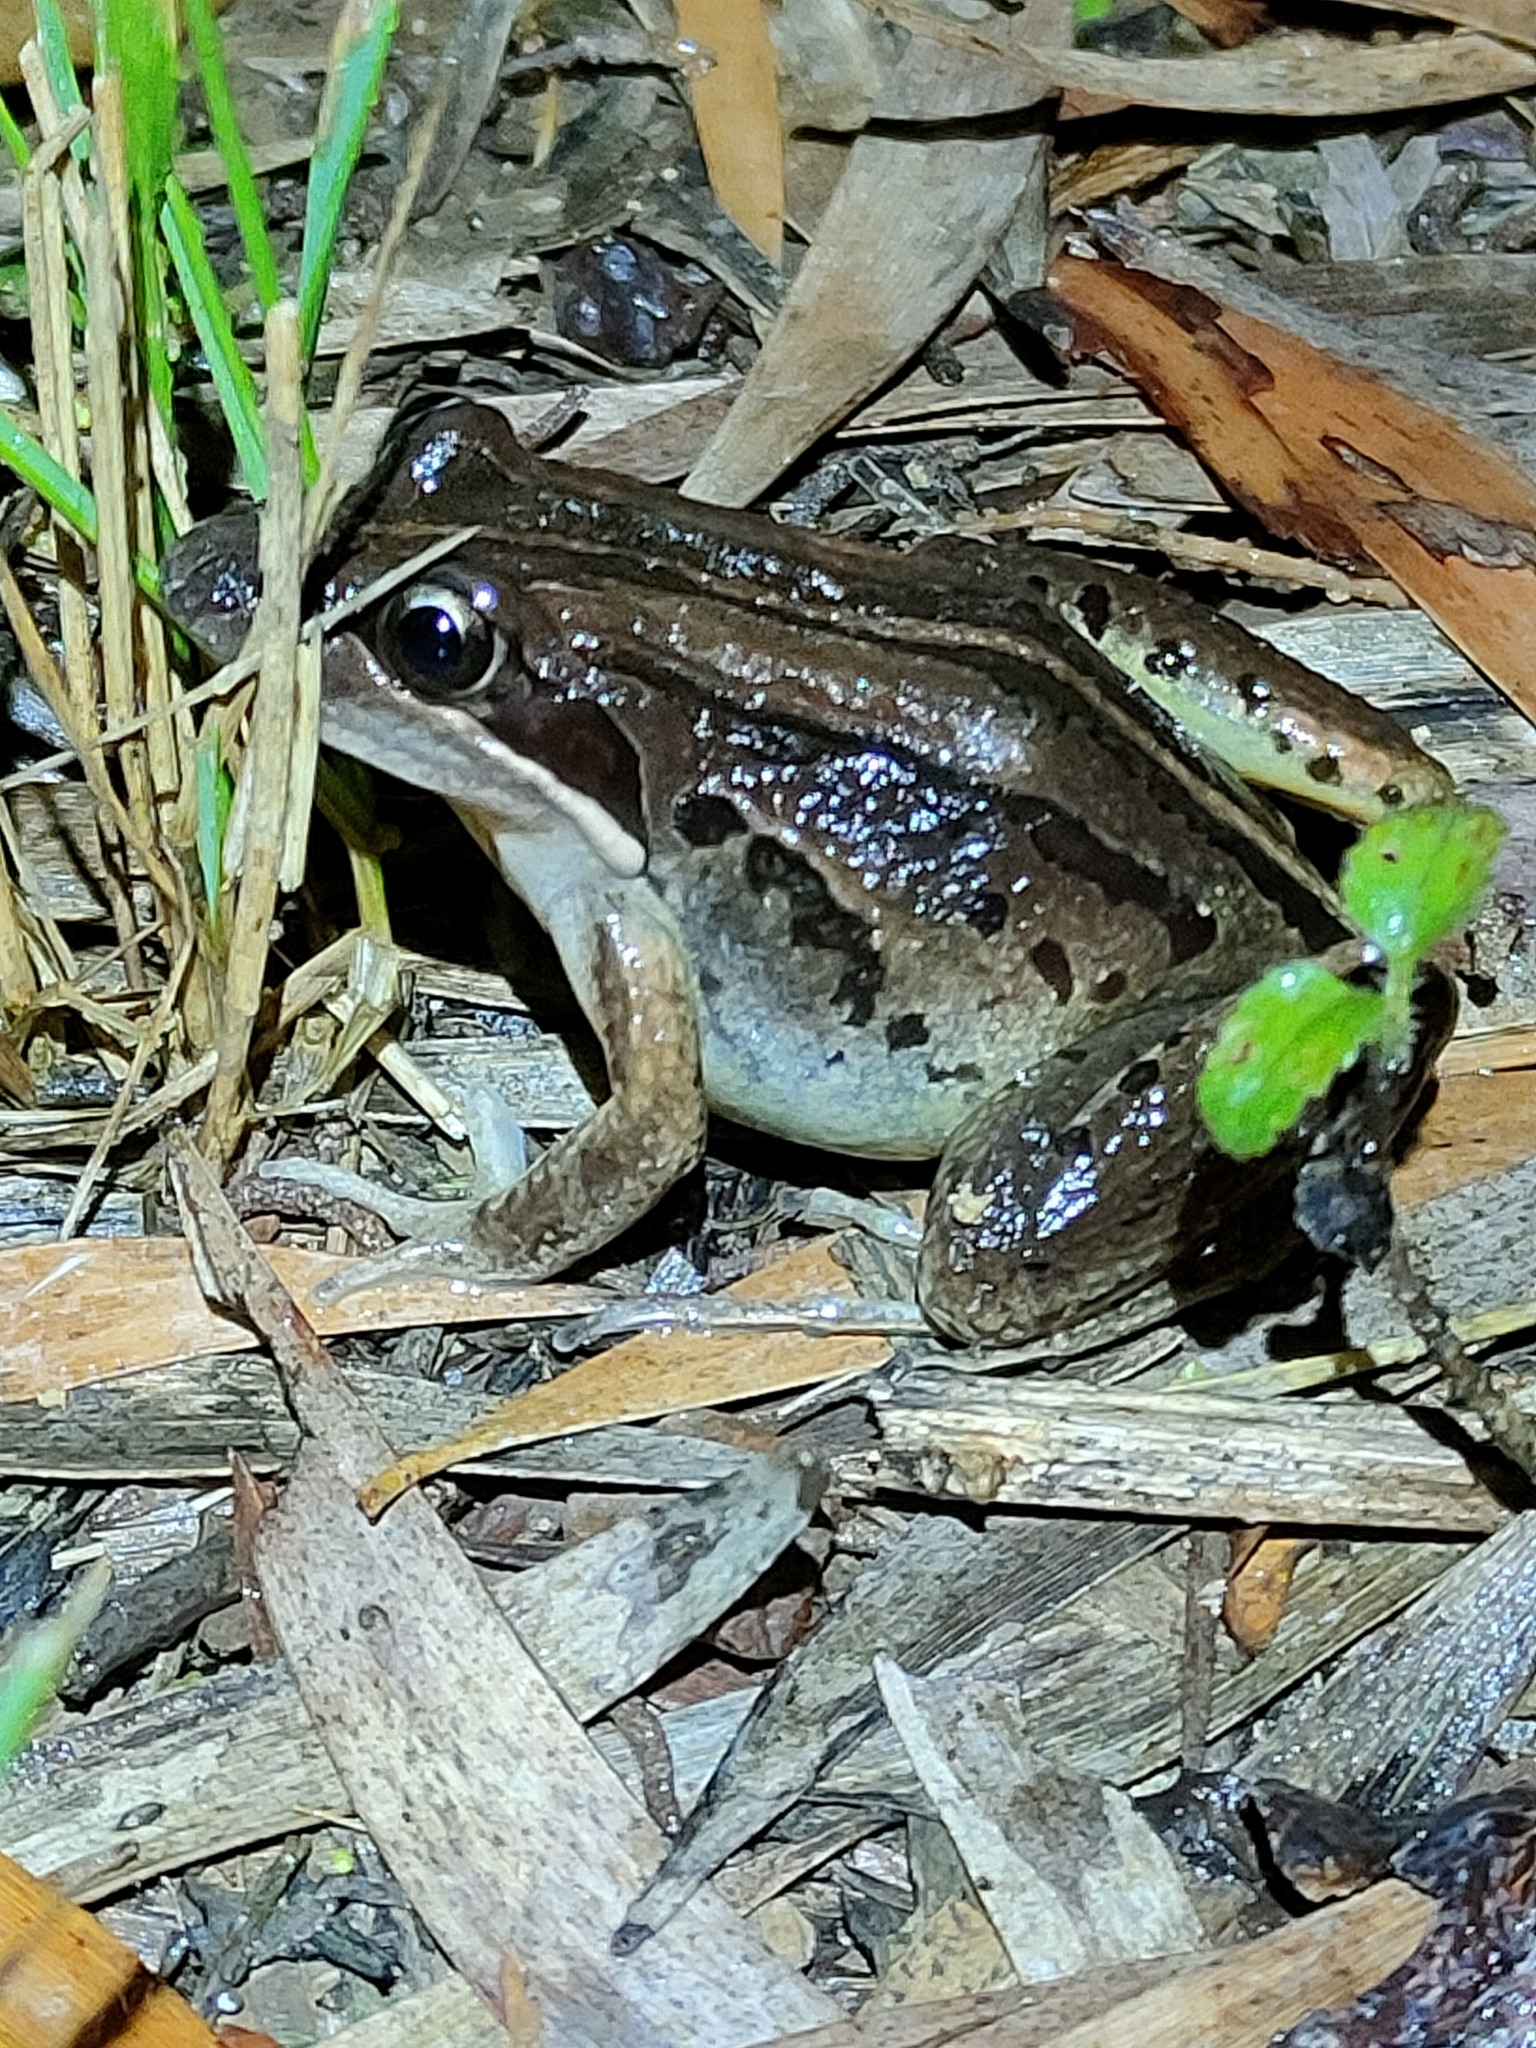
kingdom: Animalia
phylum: Chordata
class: Amphibia
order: Anura
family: Limnodynastidae
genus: Limnodynastes
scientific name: Limnodynastes peronii
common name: Brown frog
